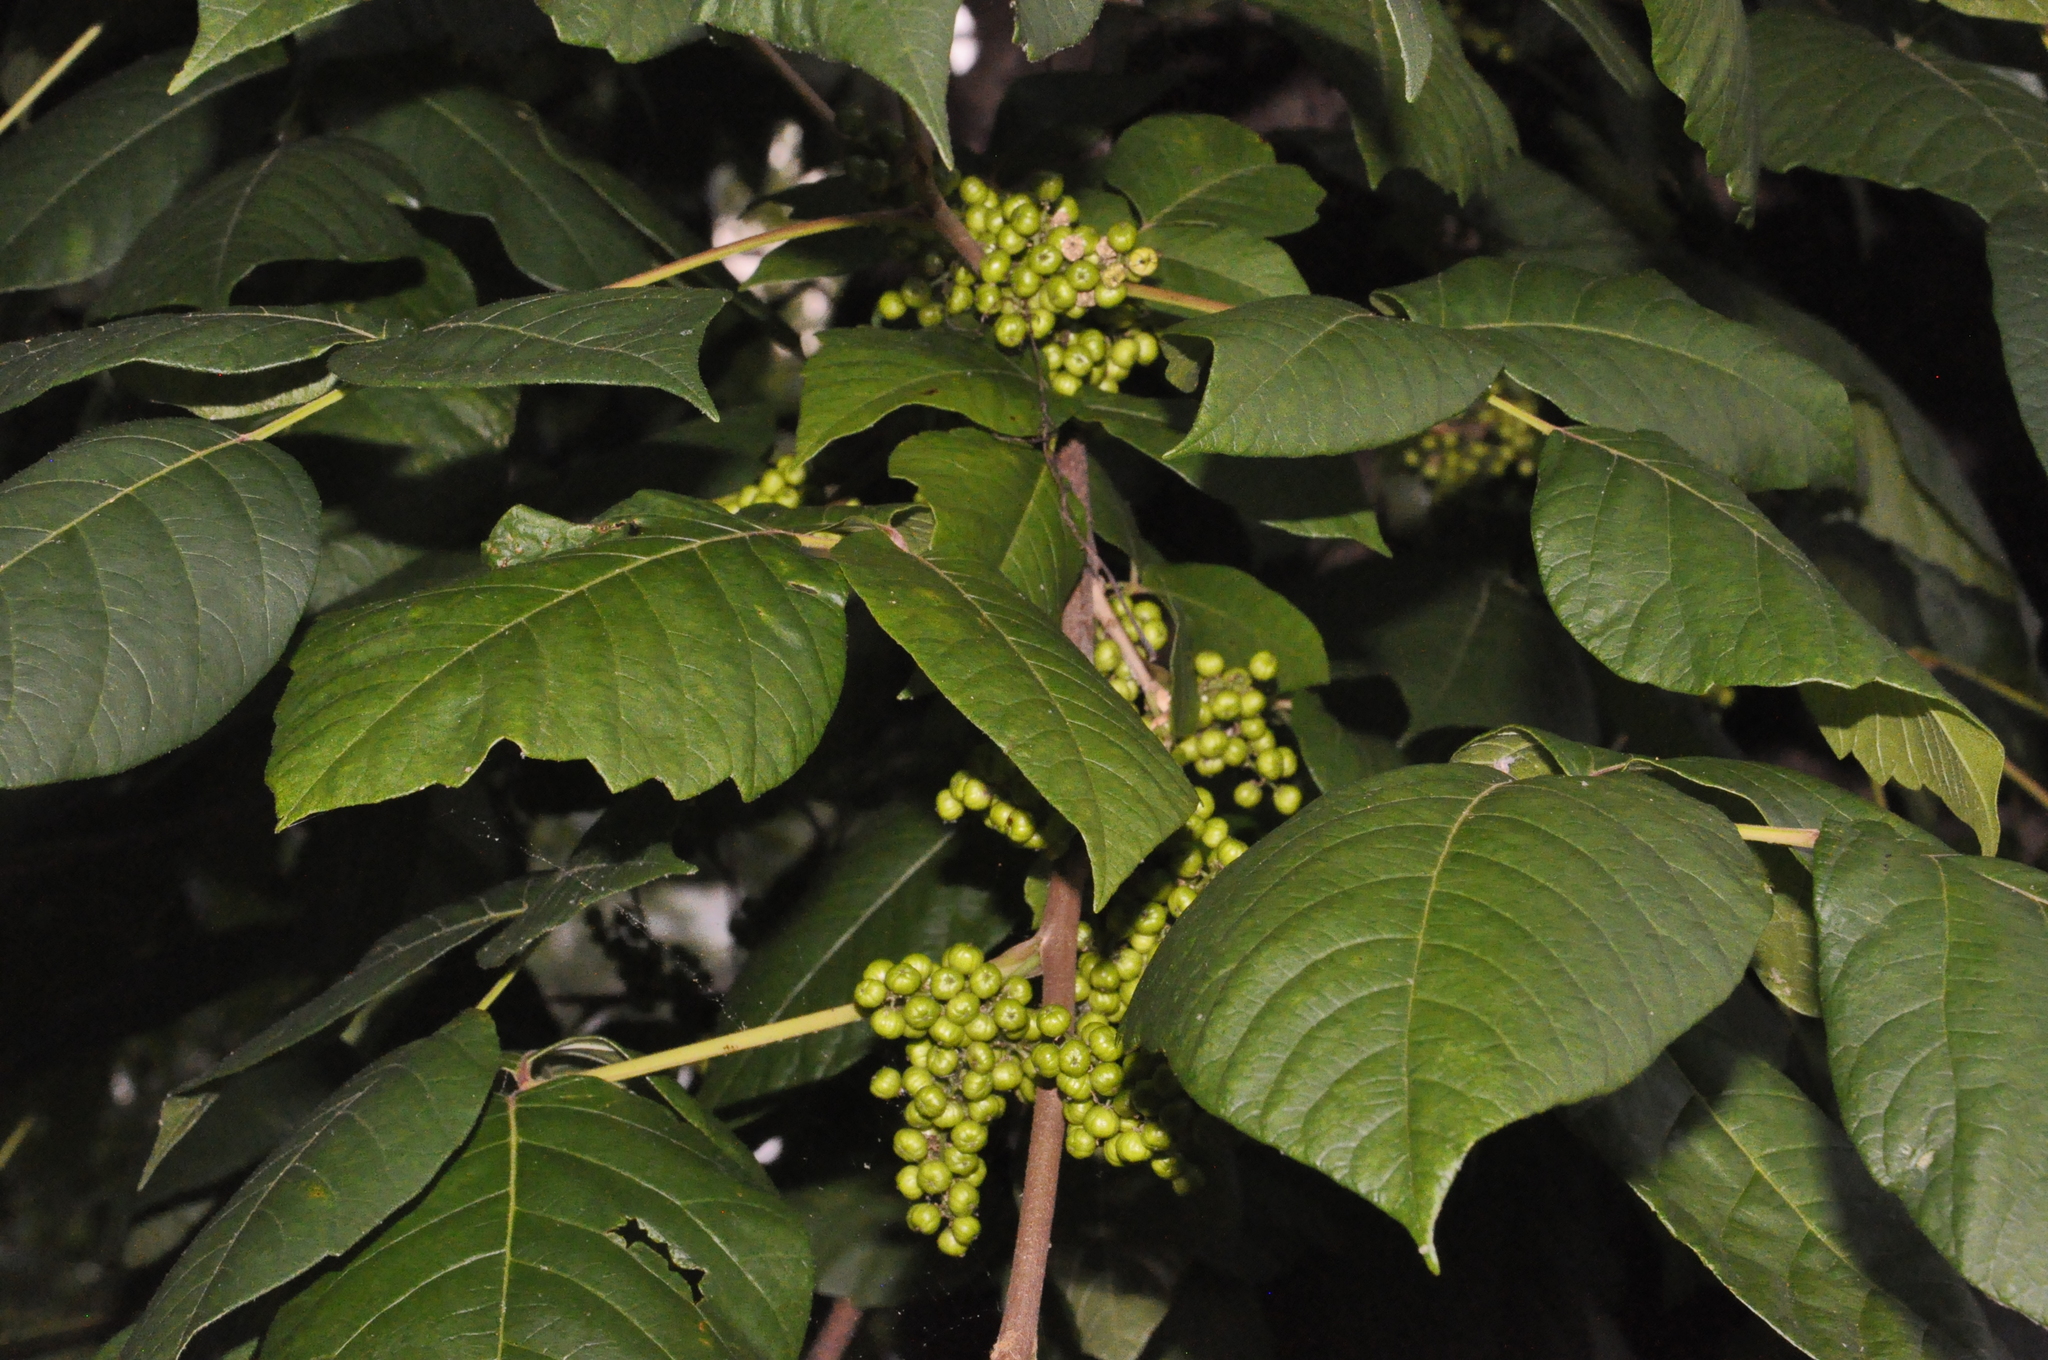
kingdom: Plantae
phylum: Tracheophyta
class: Magnoliopsida
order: Sapindales
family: Anacardiaceae
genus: Toxicodendron
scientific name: Toxicodendron radicans
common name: Poison ivy
